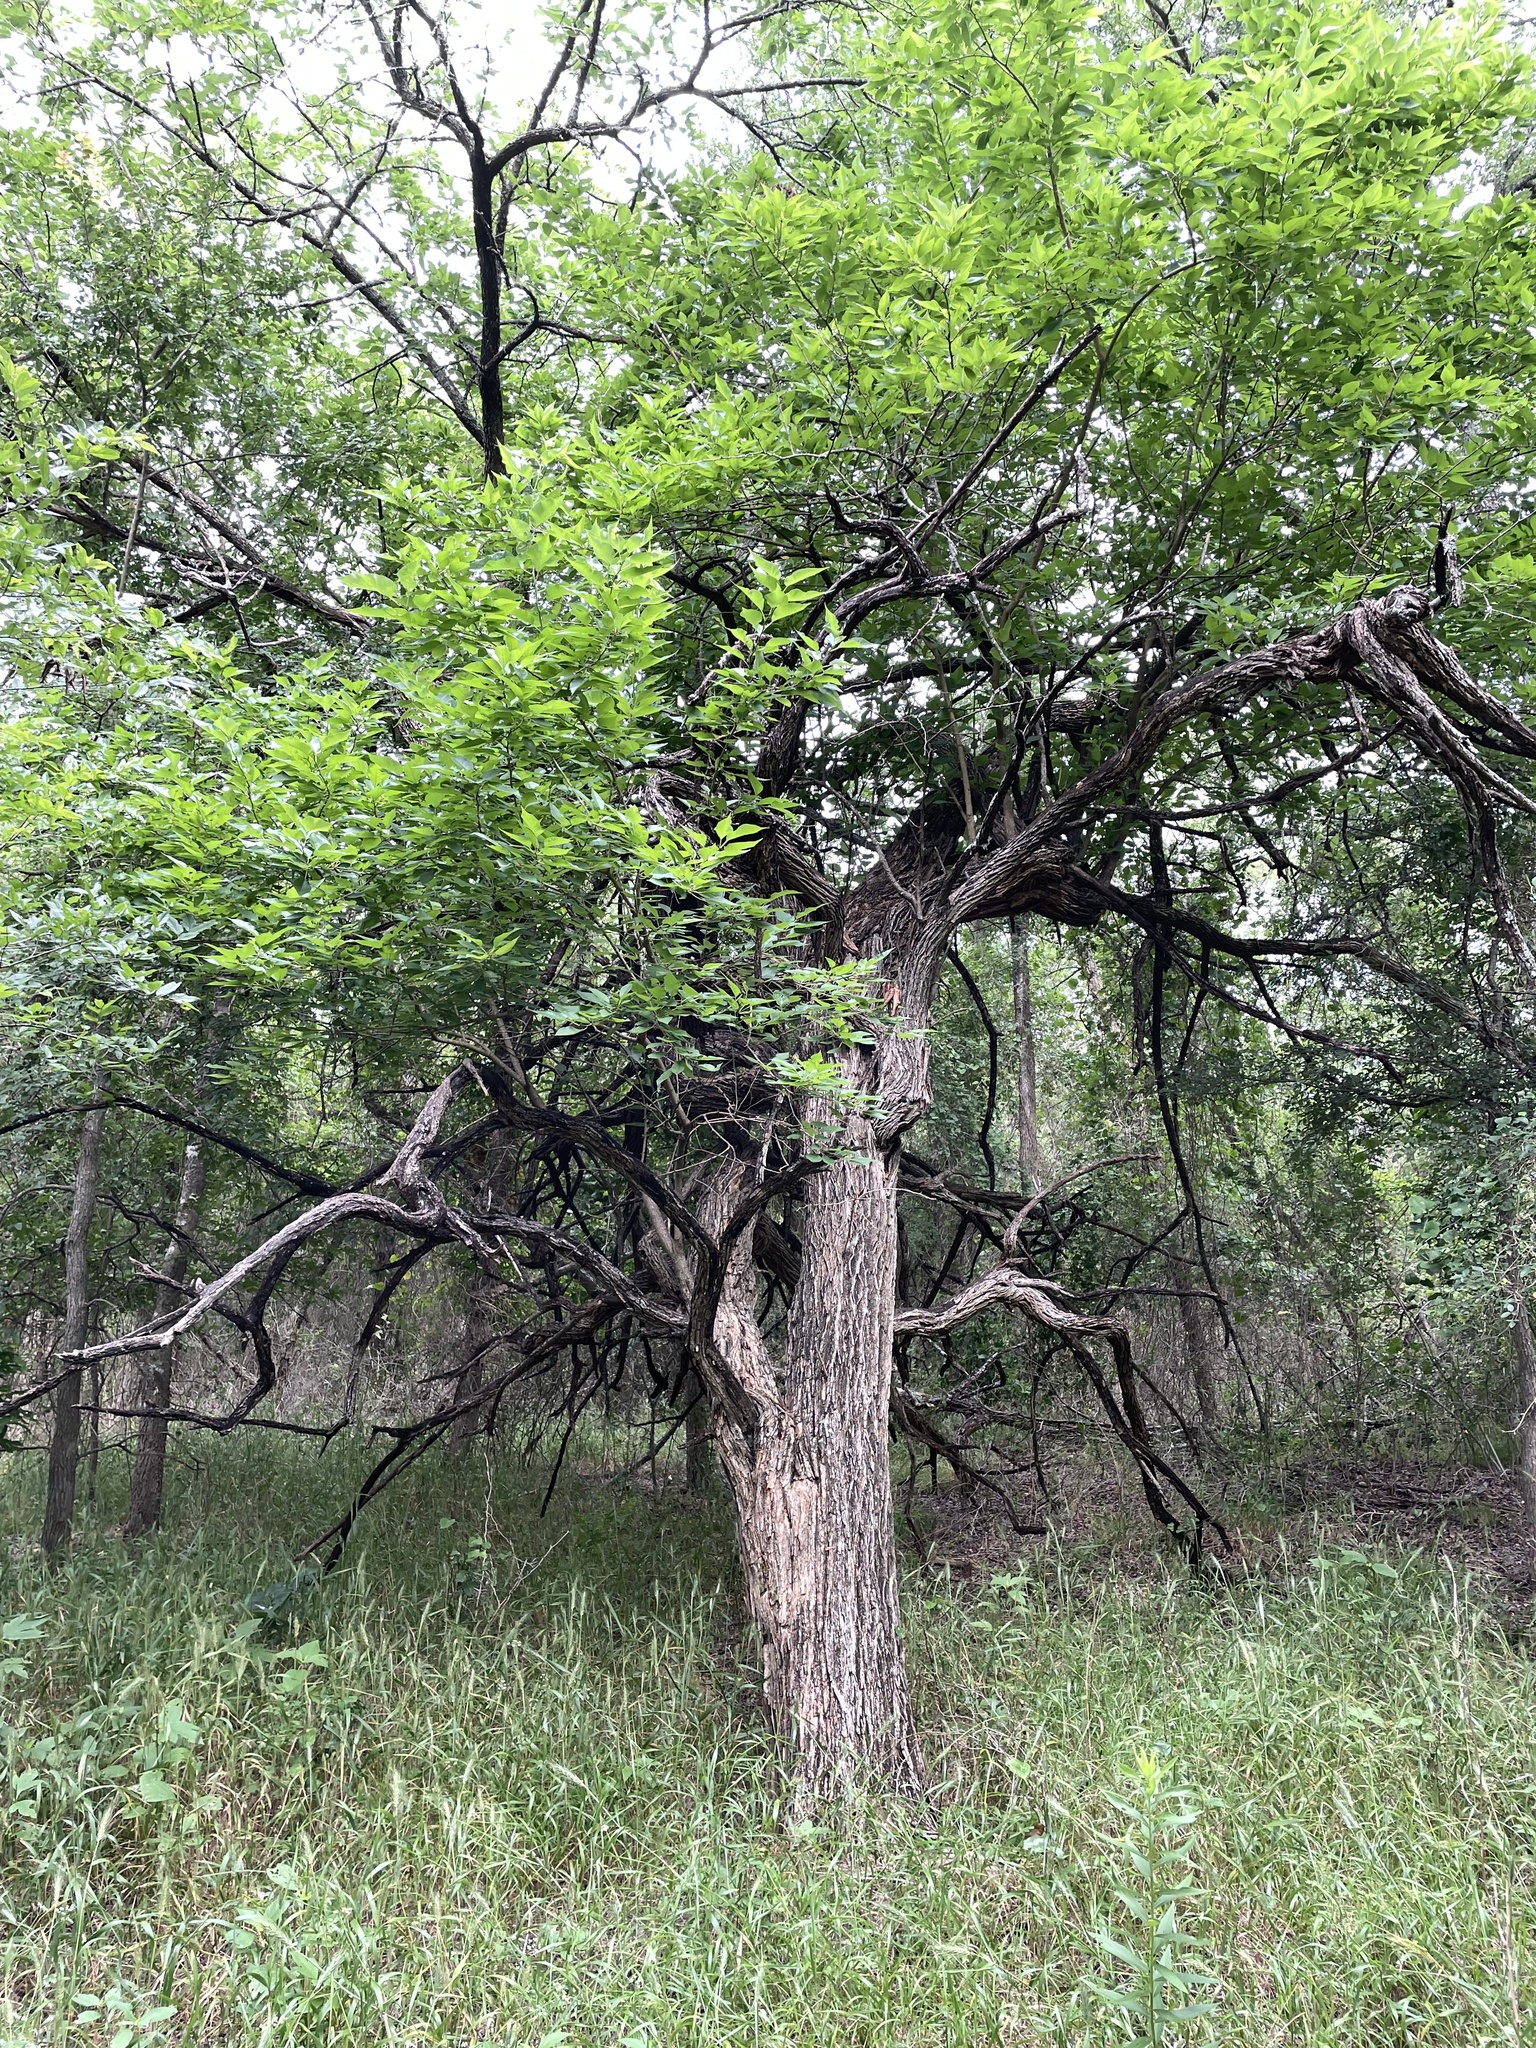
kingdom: Plantae
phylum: Tracheophyta
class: Magnoliopsida
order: Rosales
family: Moraceae
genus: Maclura
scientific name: Maclura pomifera
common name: Osage-orange
